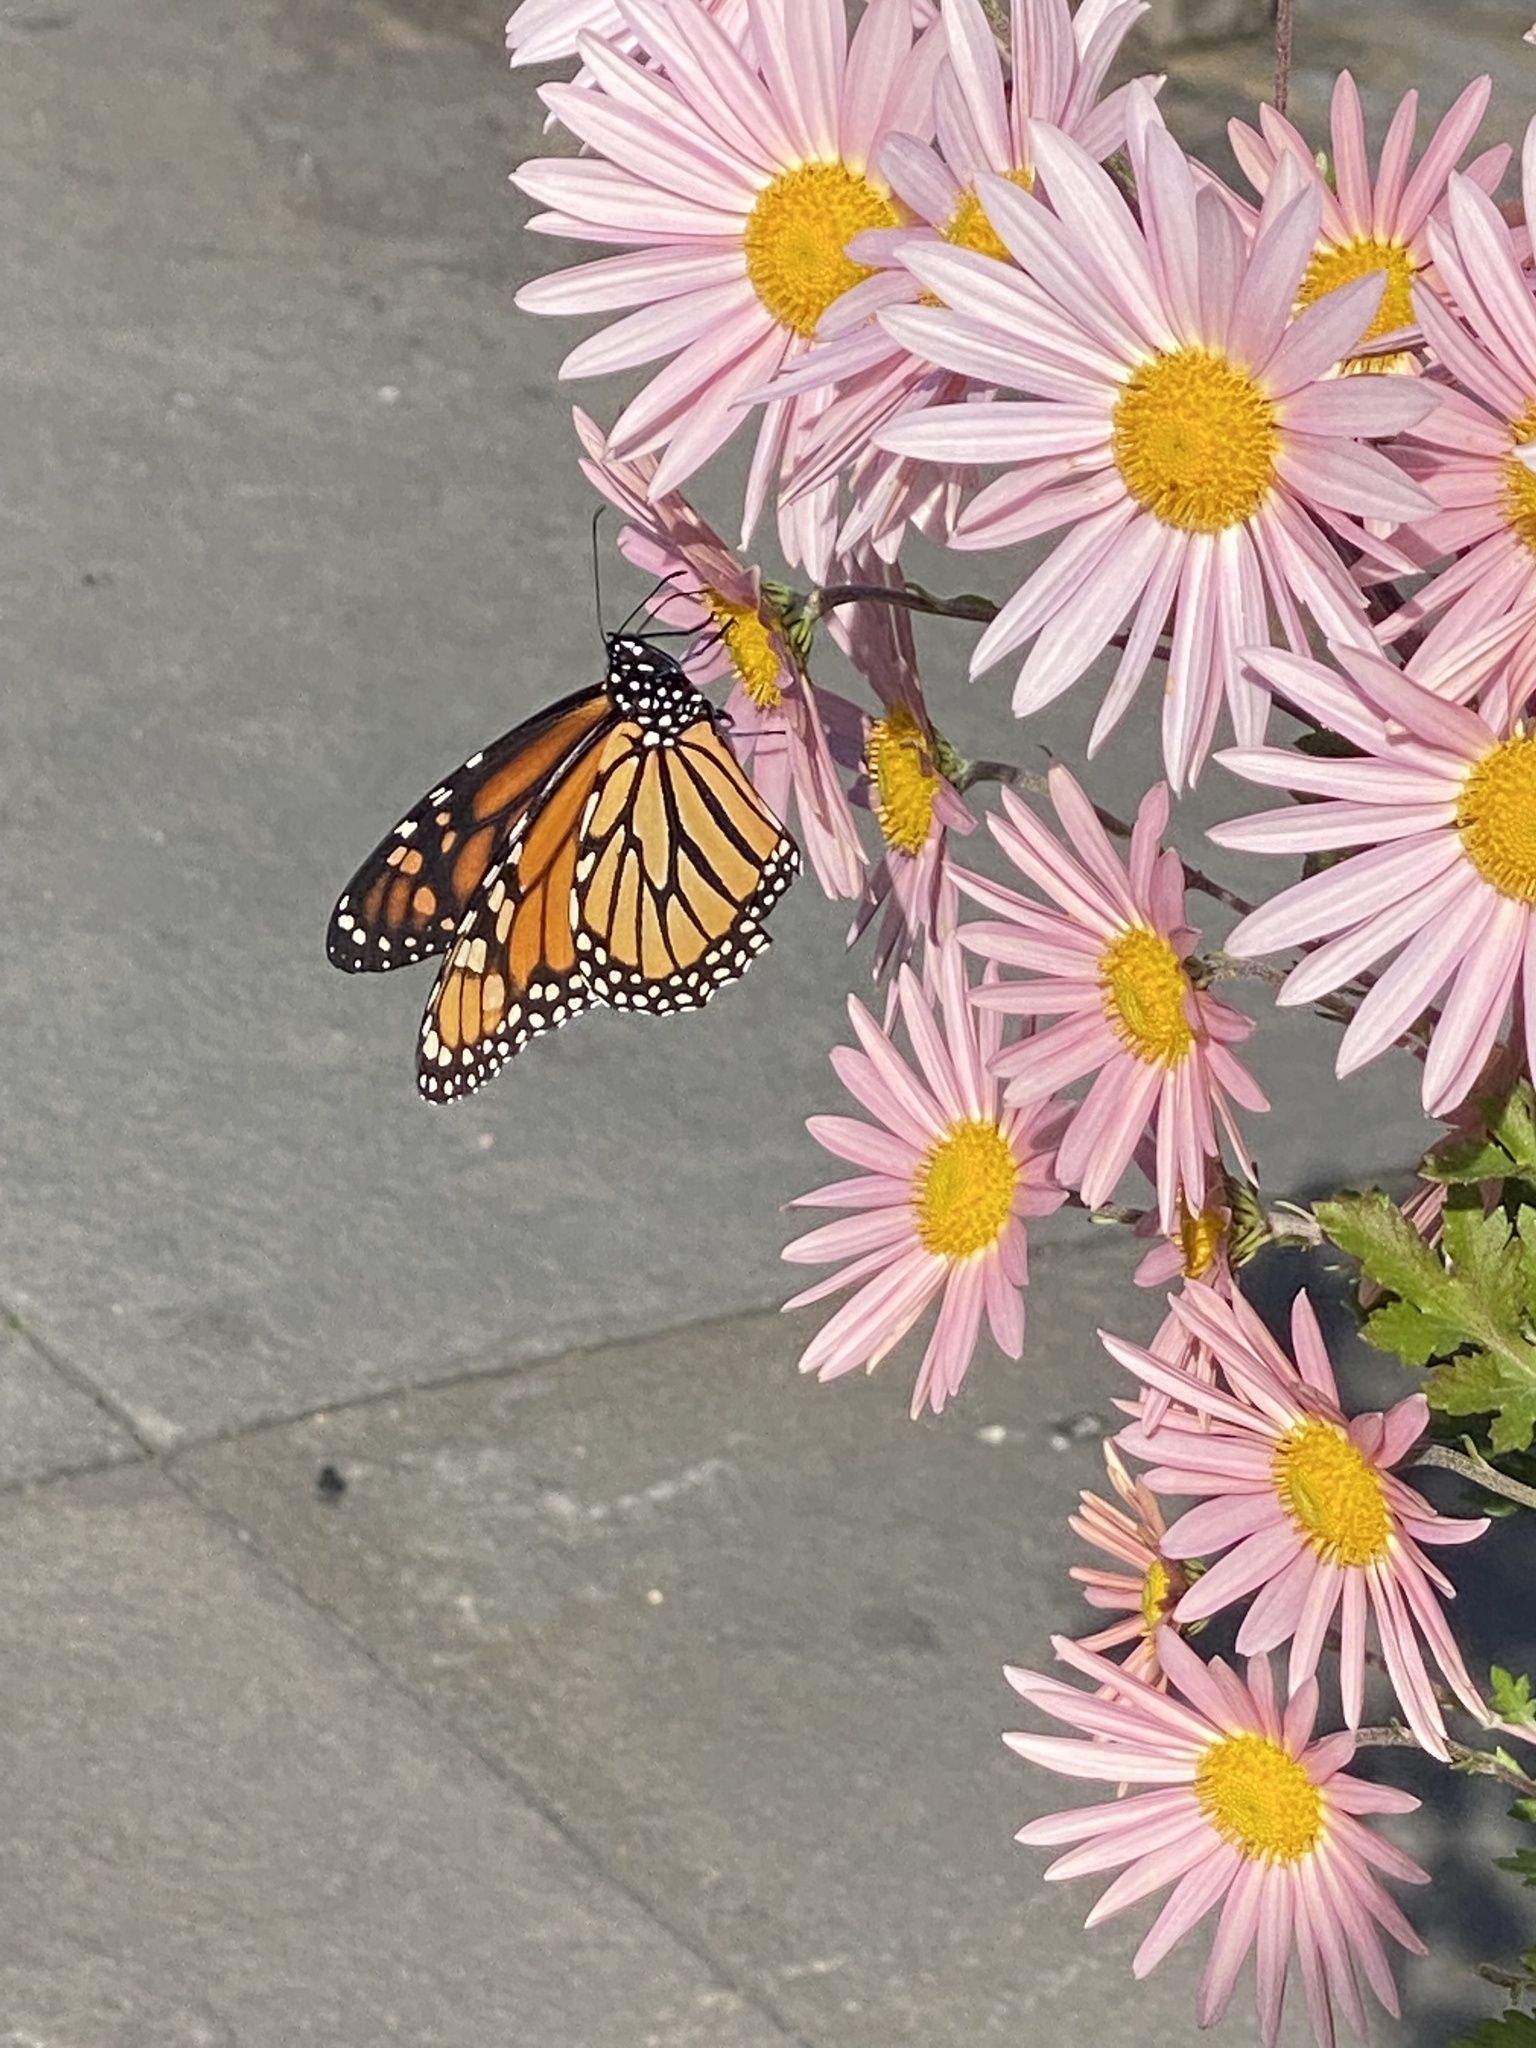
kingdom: Animalia
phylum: Arthropoda
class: Insecta
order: Lepidoptera
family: Nymphalidae
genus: Danaus
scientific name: Danaus plexippus
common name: Monarch
